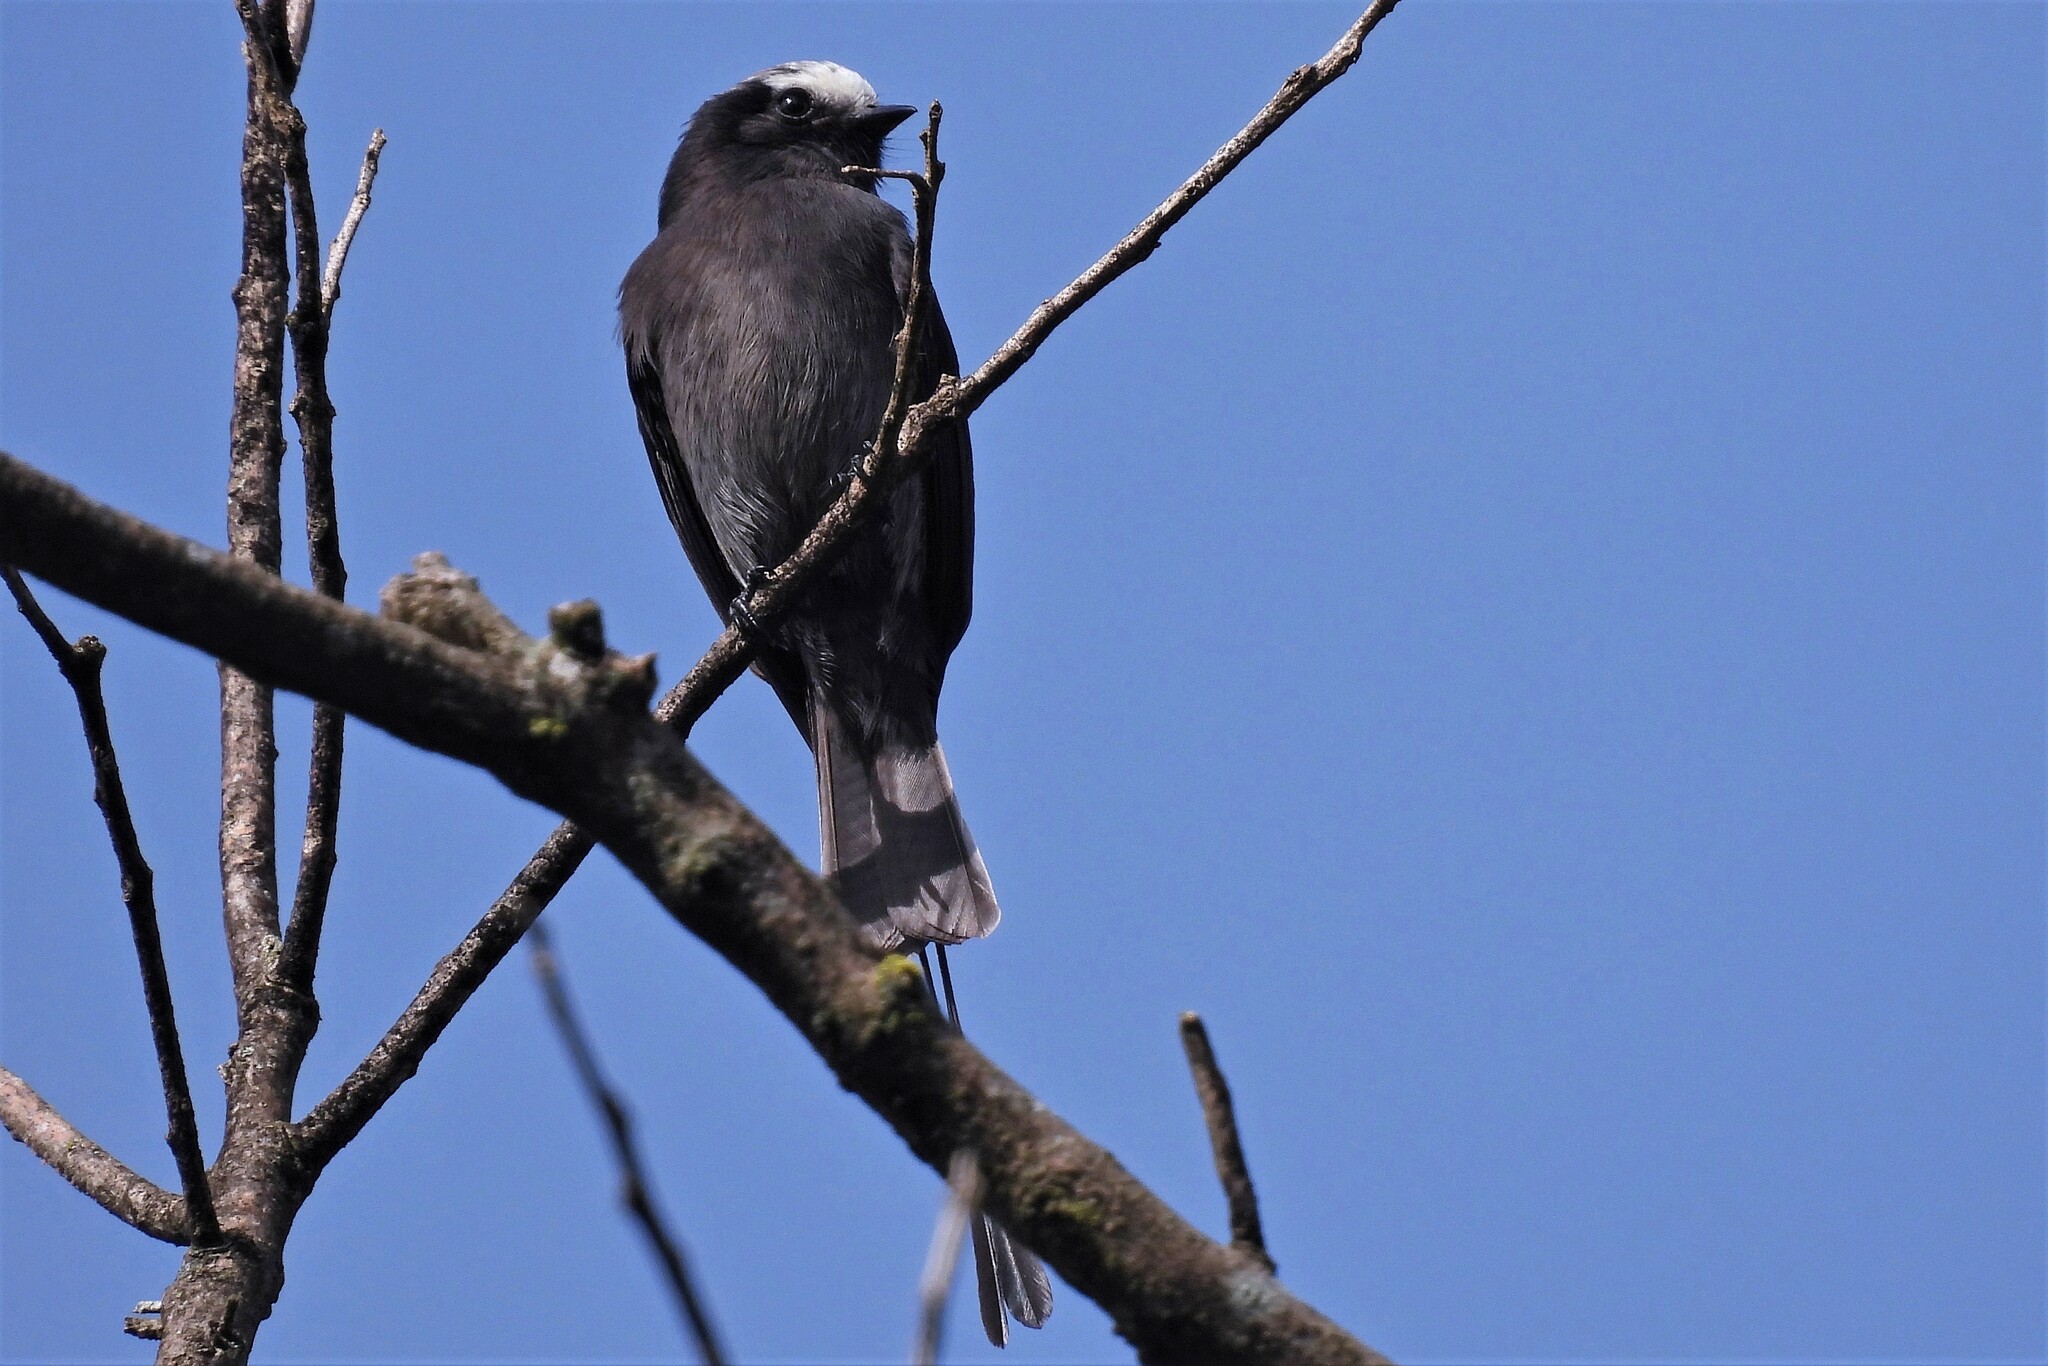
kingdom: Animalia
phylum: Chordata
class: Aves
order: Passeriformes
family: Tyrannidae
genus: Colonia
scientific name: Colonia colonus
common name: Long-tailed tyrant
